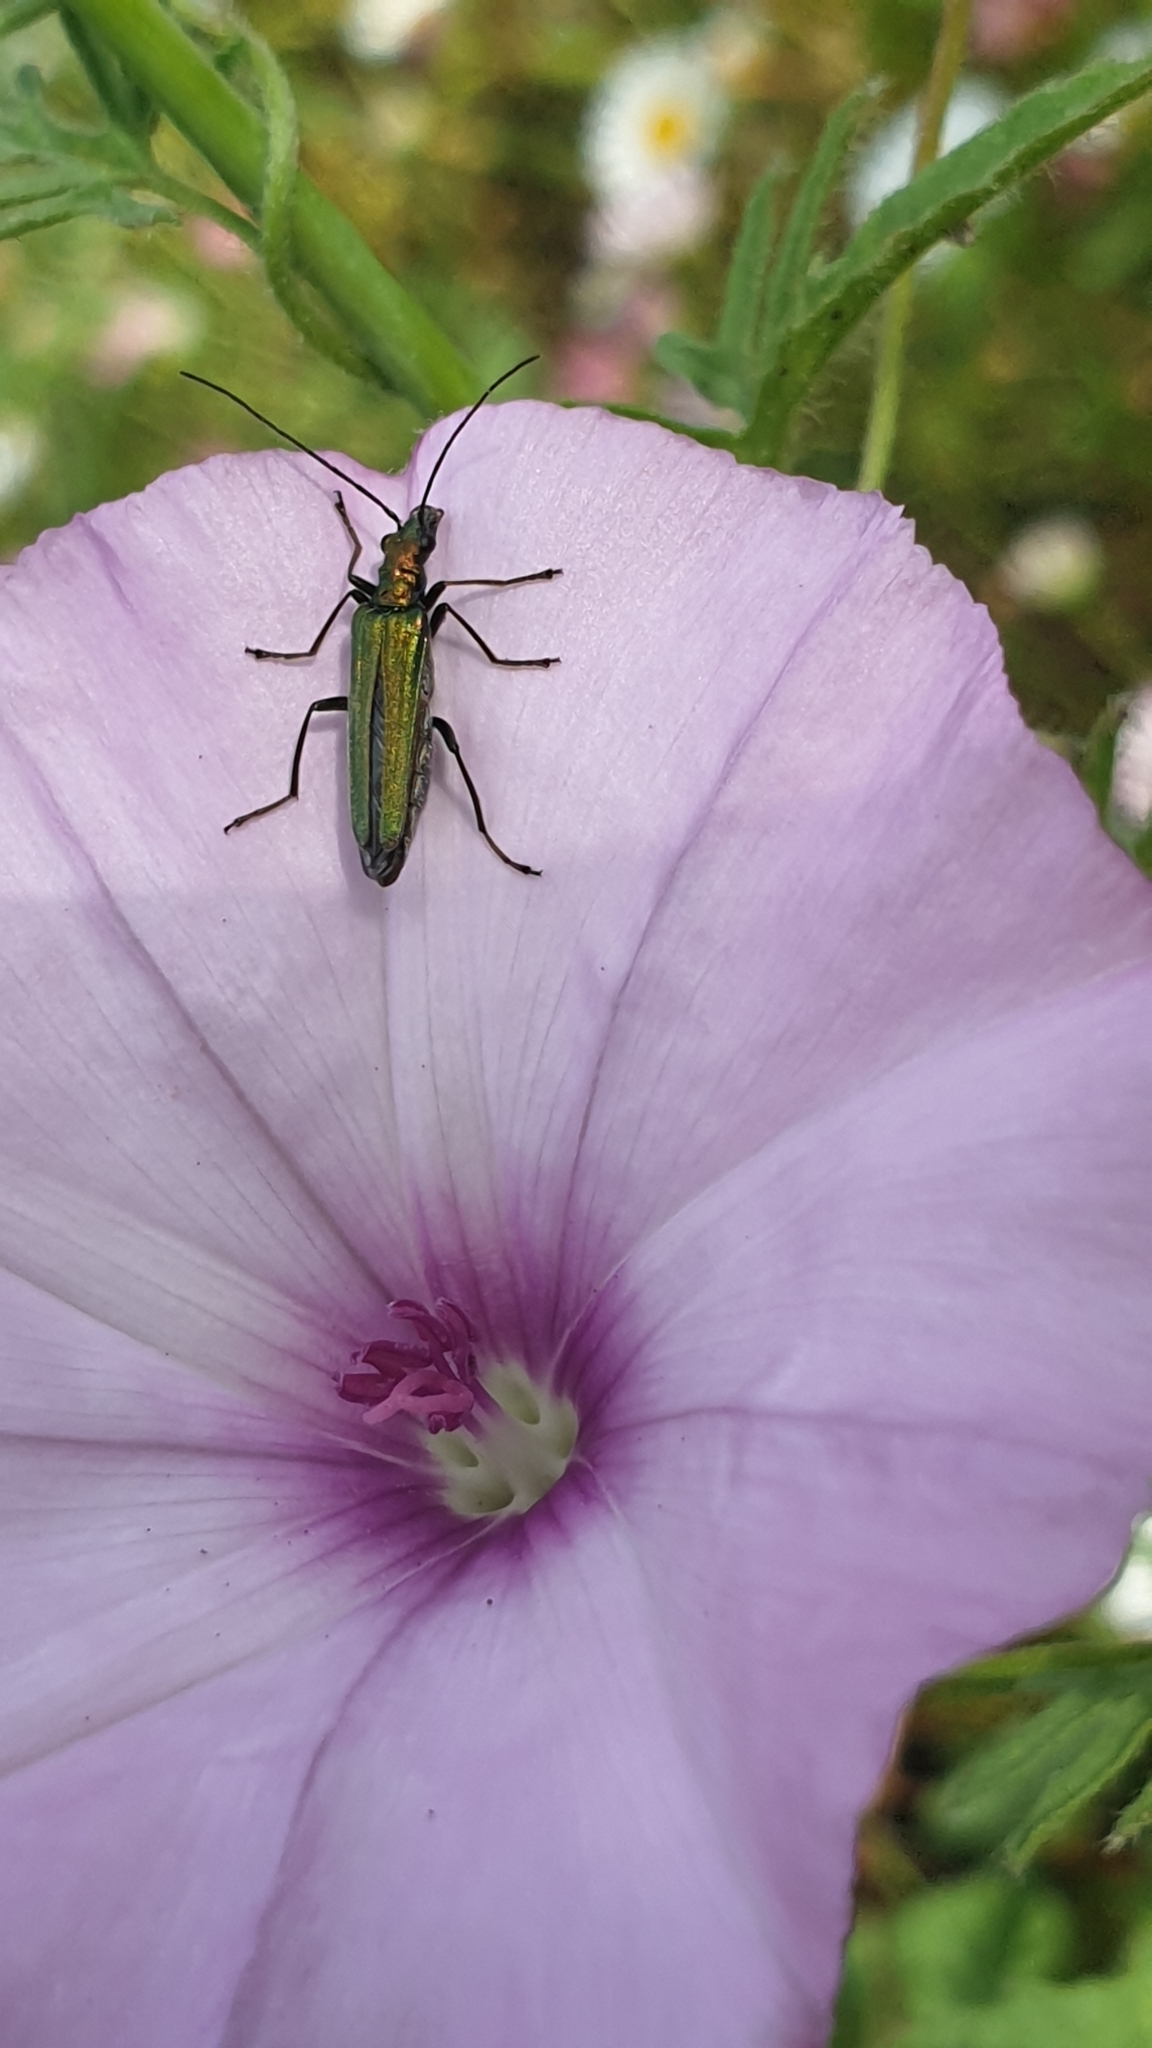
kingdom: Animalia
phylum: Arthropoda
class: Insecta
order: Coleoptera
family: Oedemeridae
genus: Oedemera
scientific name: Oedemera nobilis
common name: Swollen-thighed beetle
